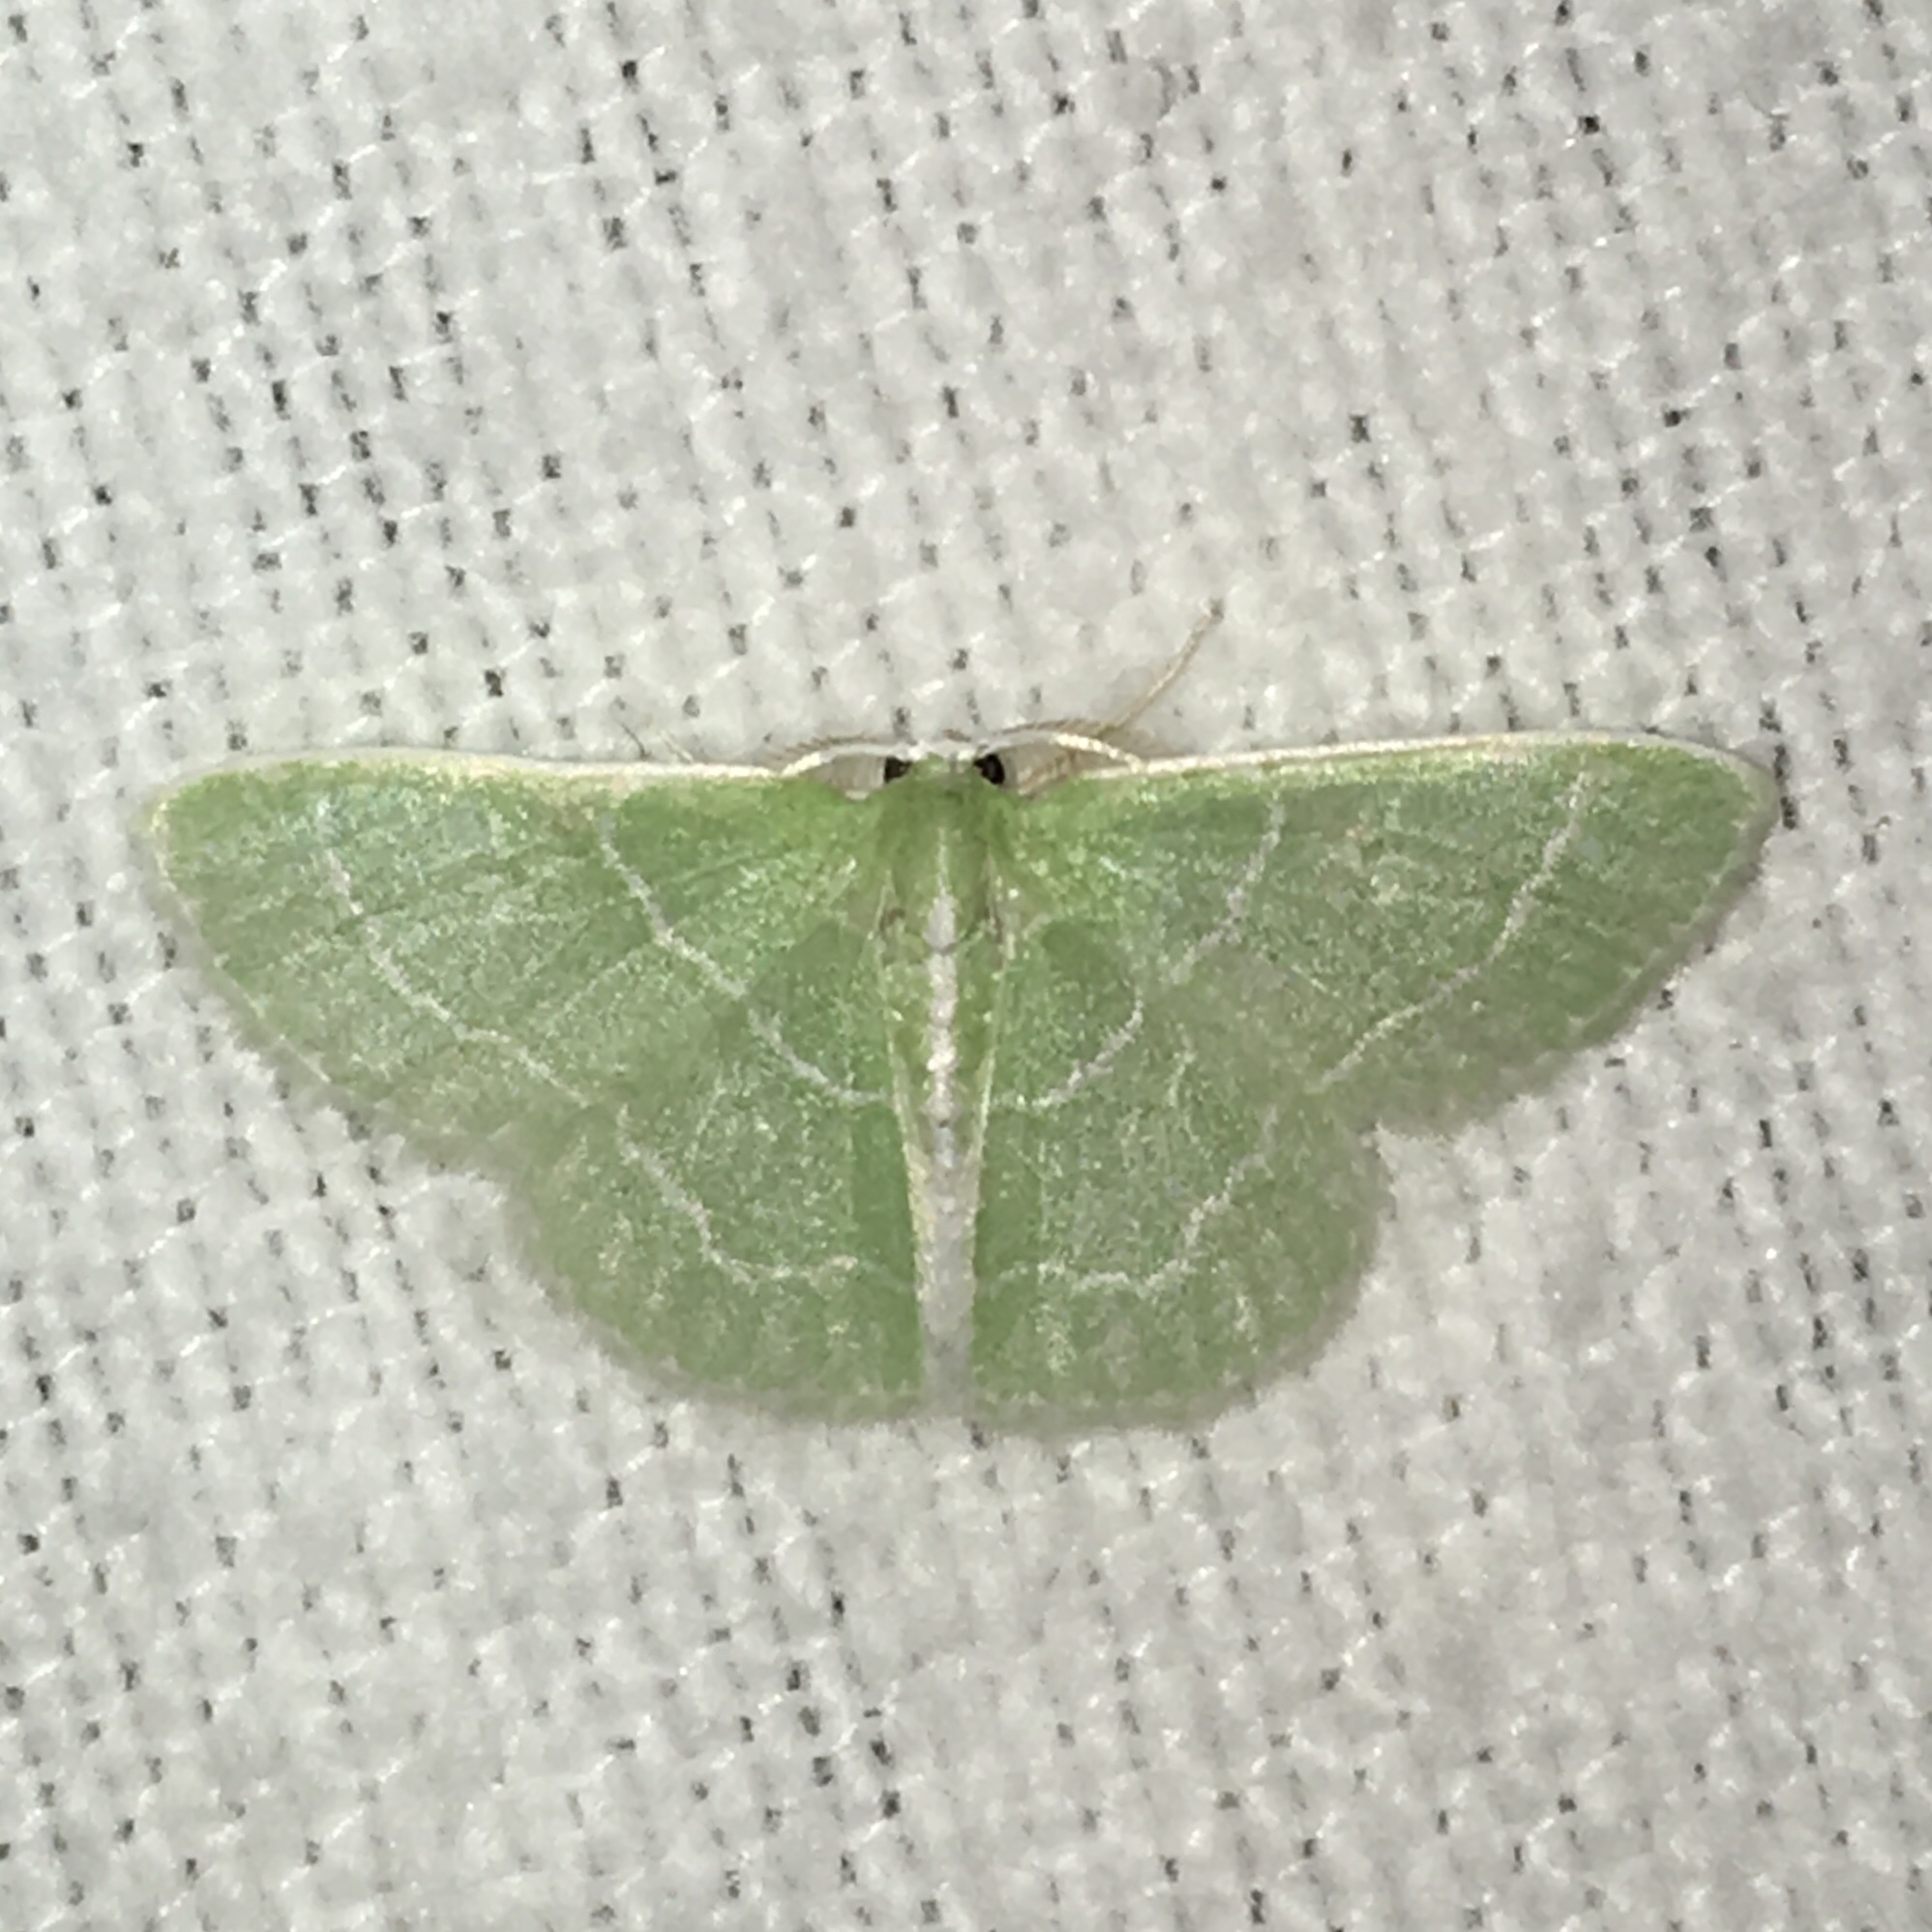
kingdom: Animalia
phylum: Arthropoda
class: Insecta
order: Lepidoptera
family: Geometridae
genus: Synchlora
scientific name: Synchlora aerata
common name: Wavy-lined emerald
